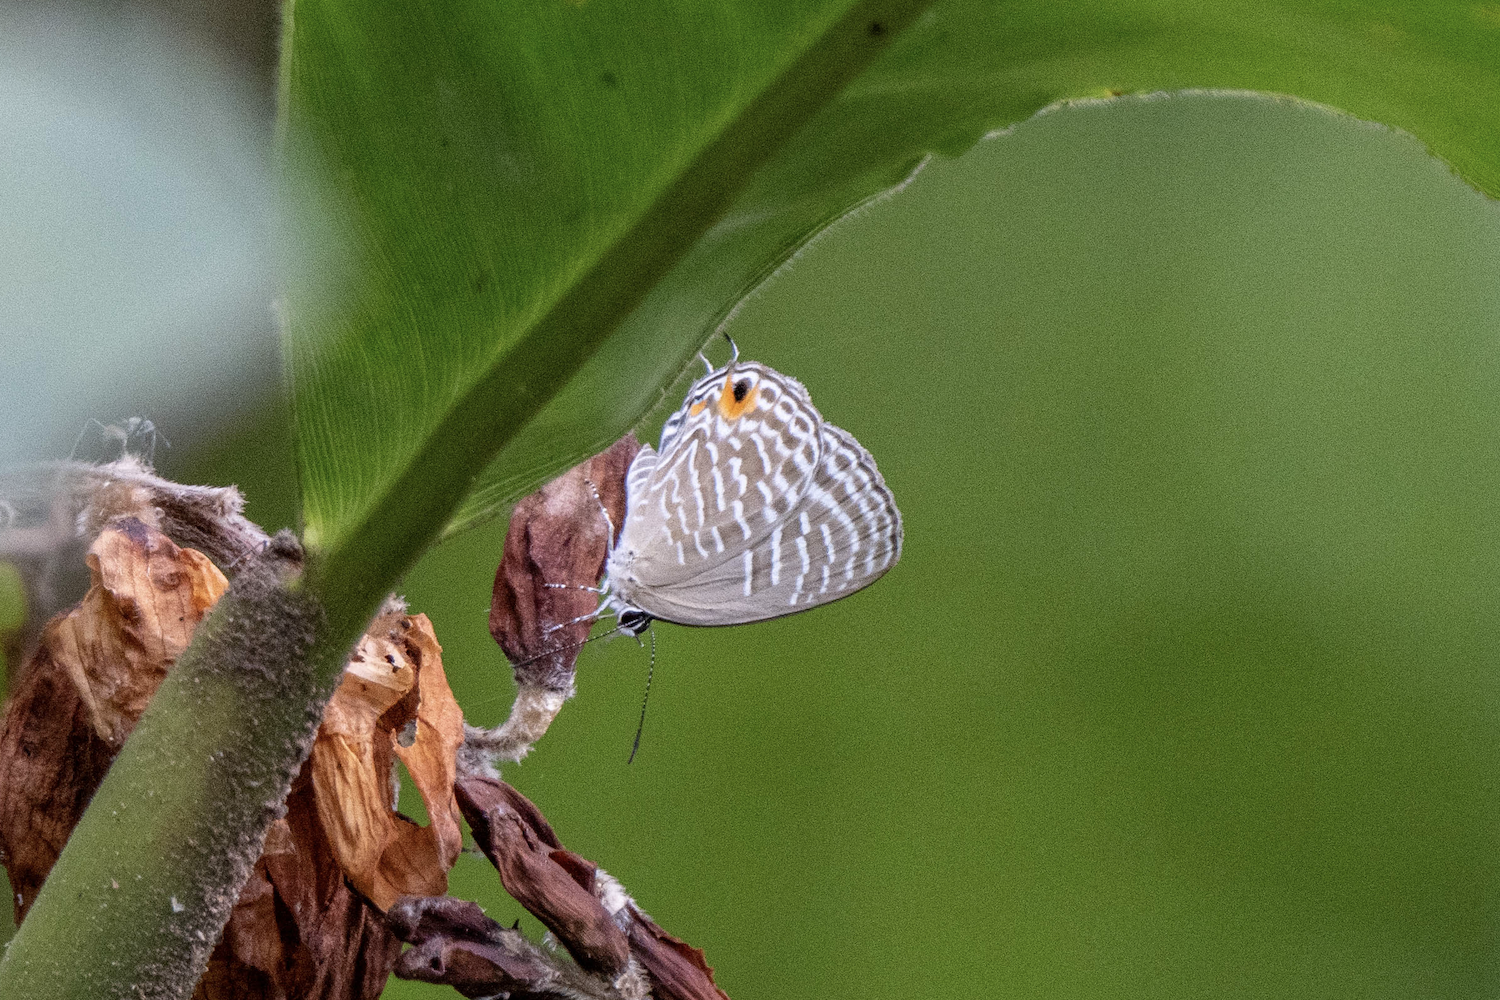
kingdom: Animalia
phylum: Arthropoda
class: Insecta
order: Lepidoptera
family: Lycaenidae
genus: Jamides
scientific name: Jamides alecto
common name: Metallic cerulean
